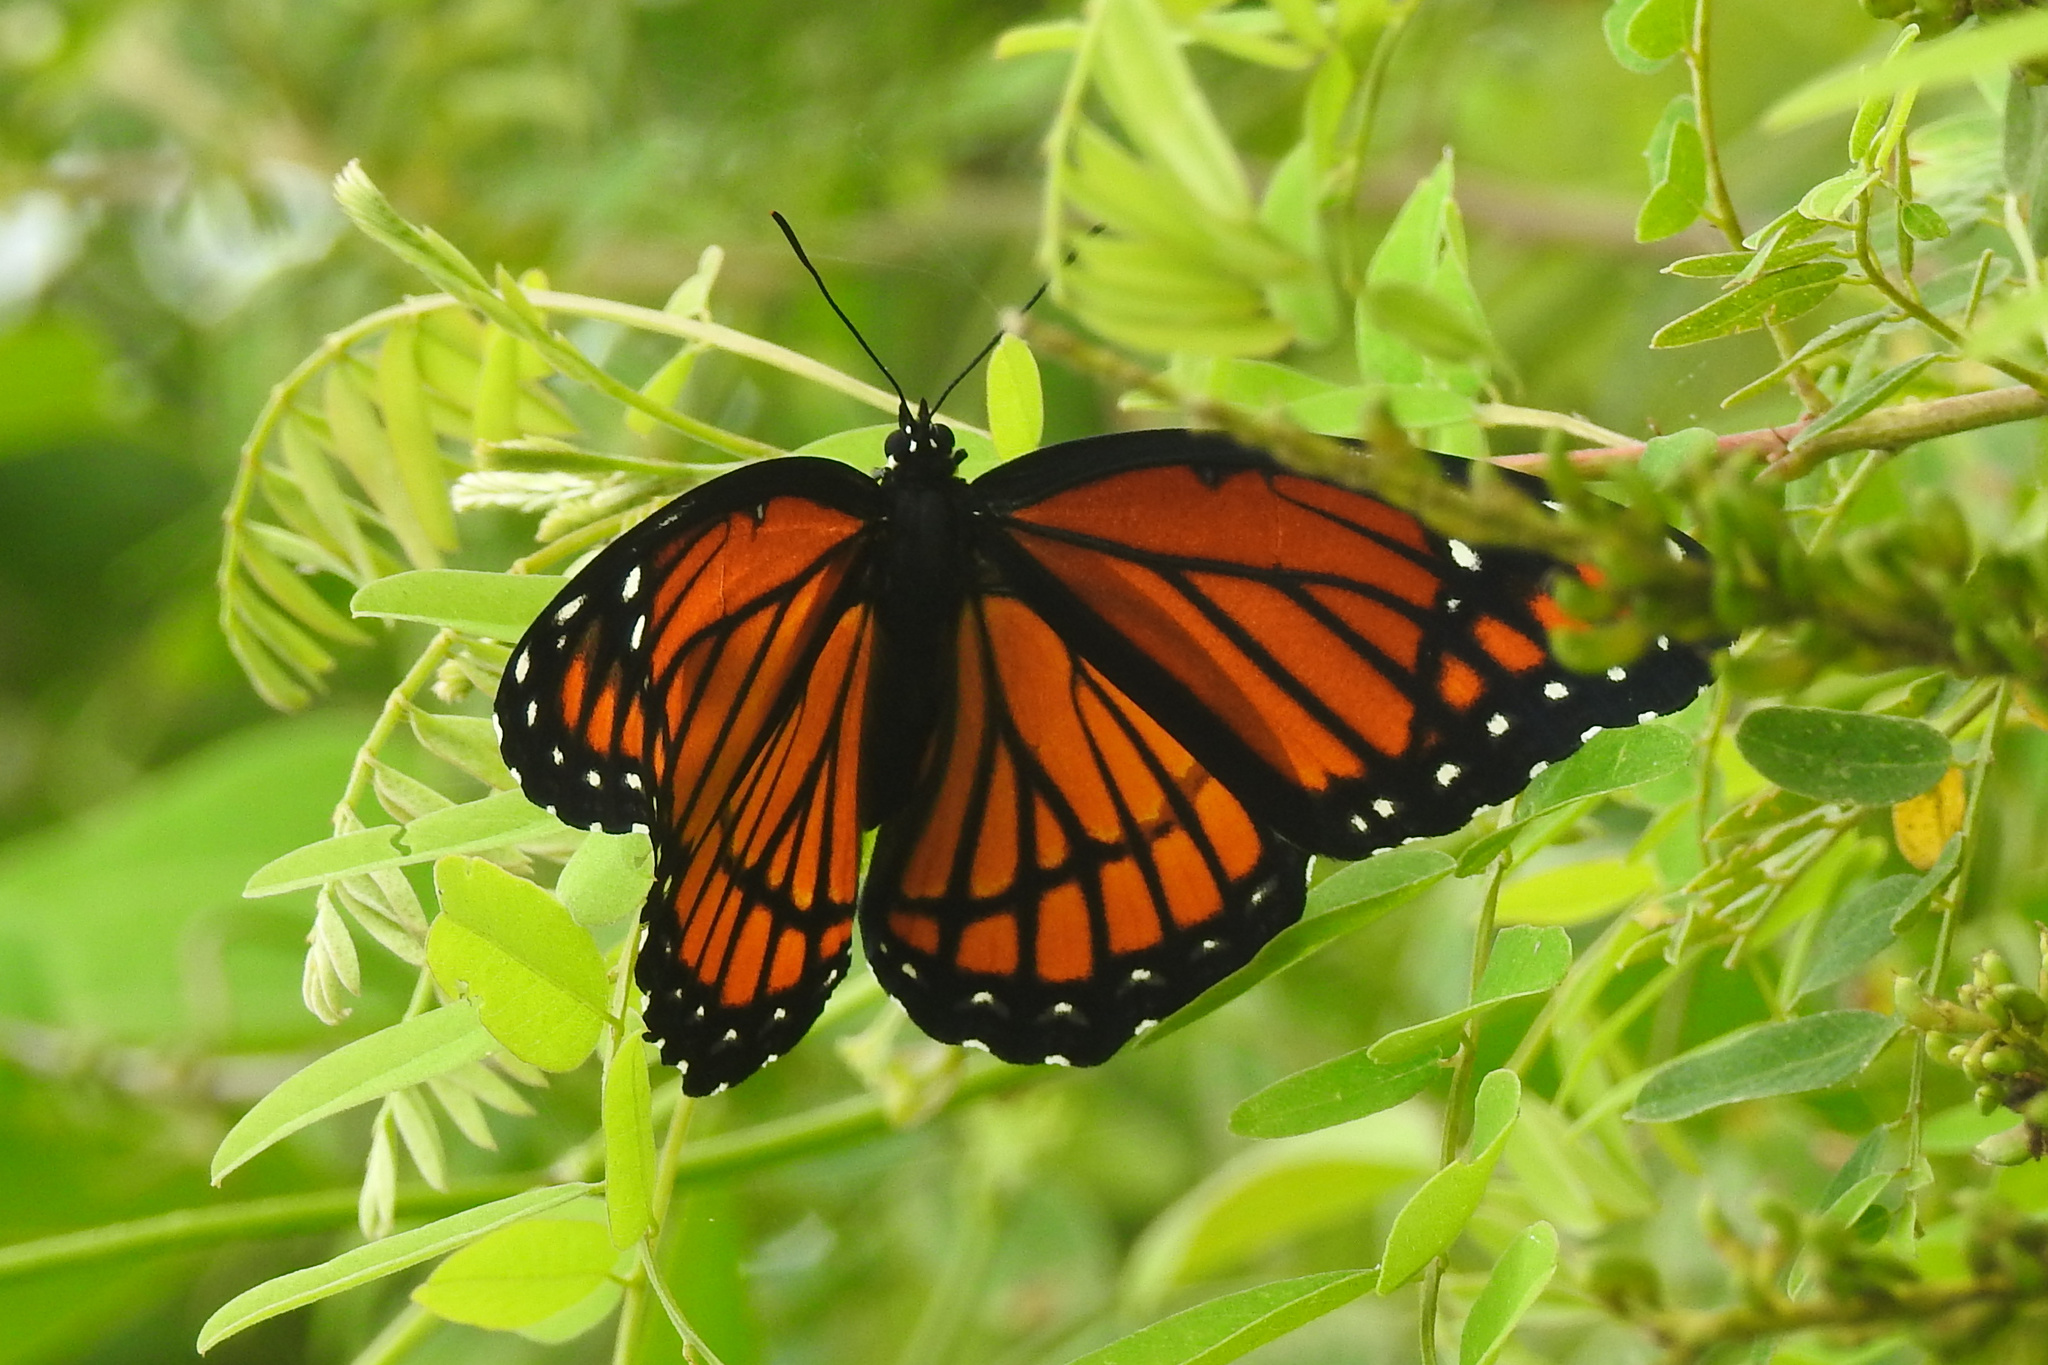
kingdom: Animalia
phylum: Arthropoda
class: Insecta
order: Lepidoptera
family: Nymphalidae
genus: Limenitis
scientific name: Limenitis archippus
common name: Viceroy
